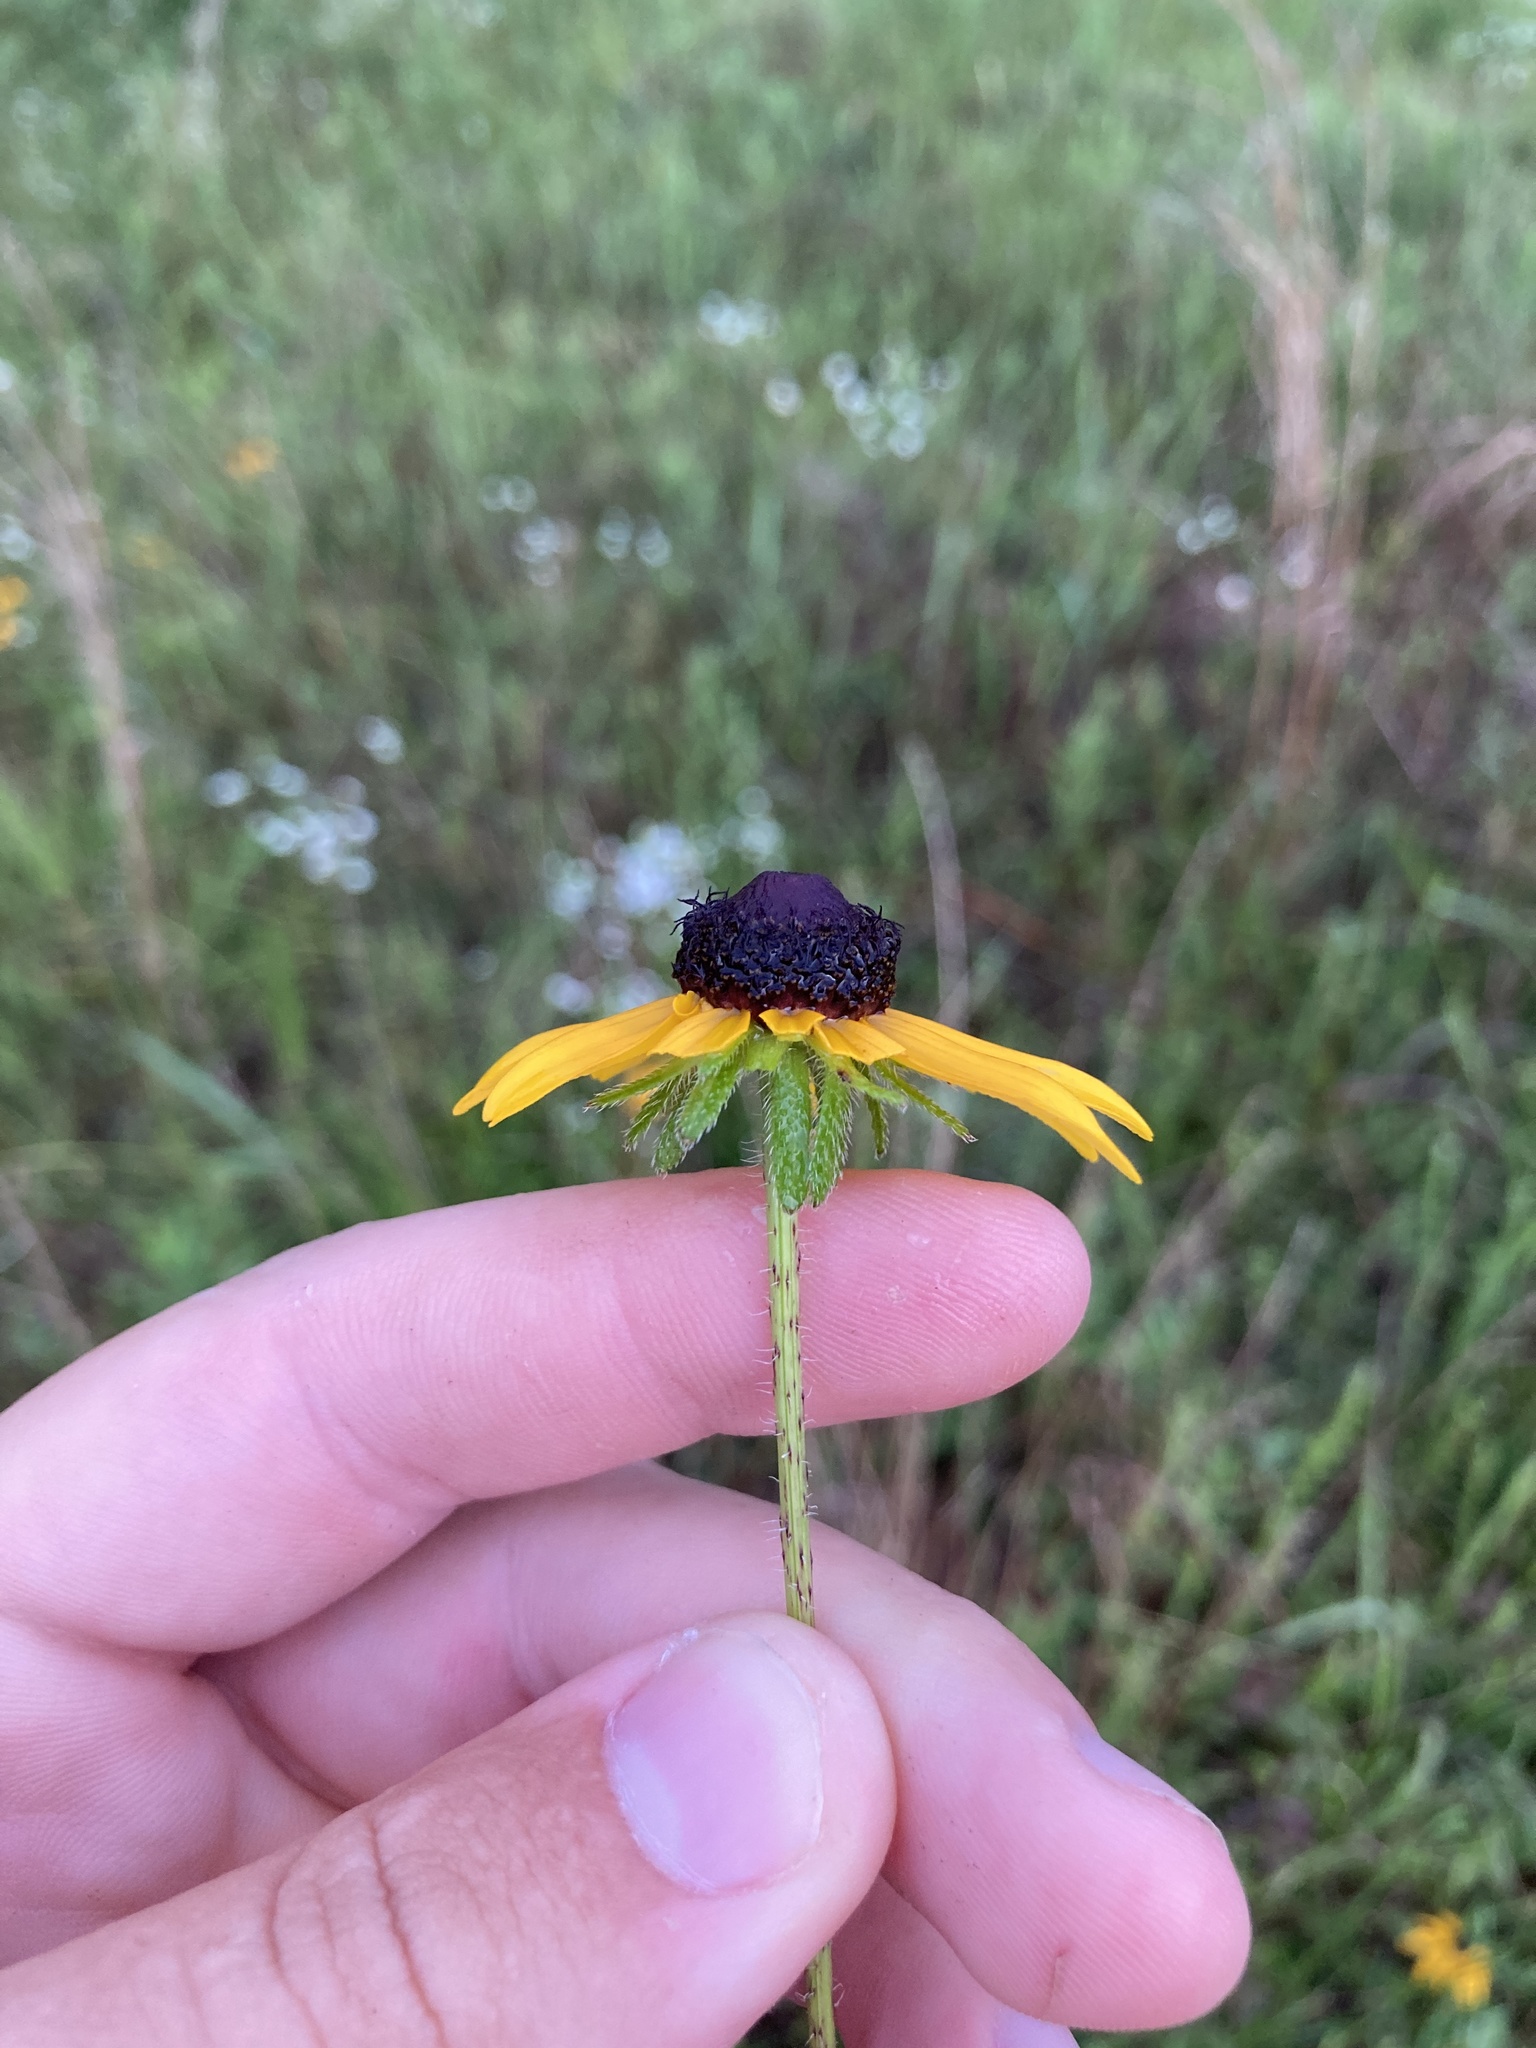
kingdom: Plantae
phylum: Tracheophyta
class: Magnoliopsida
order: Asterales
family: Asteraceae
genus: Rudbeckia
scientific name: Rudbeckia hirta
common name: Black-eyed-susan
